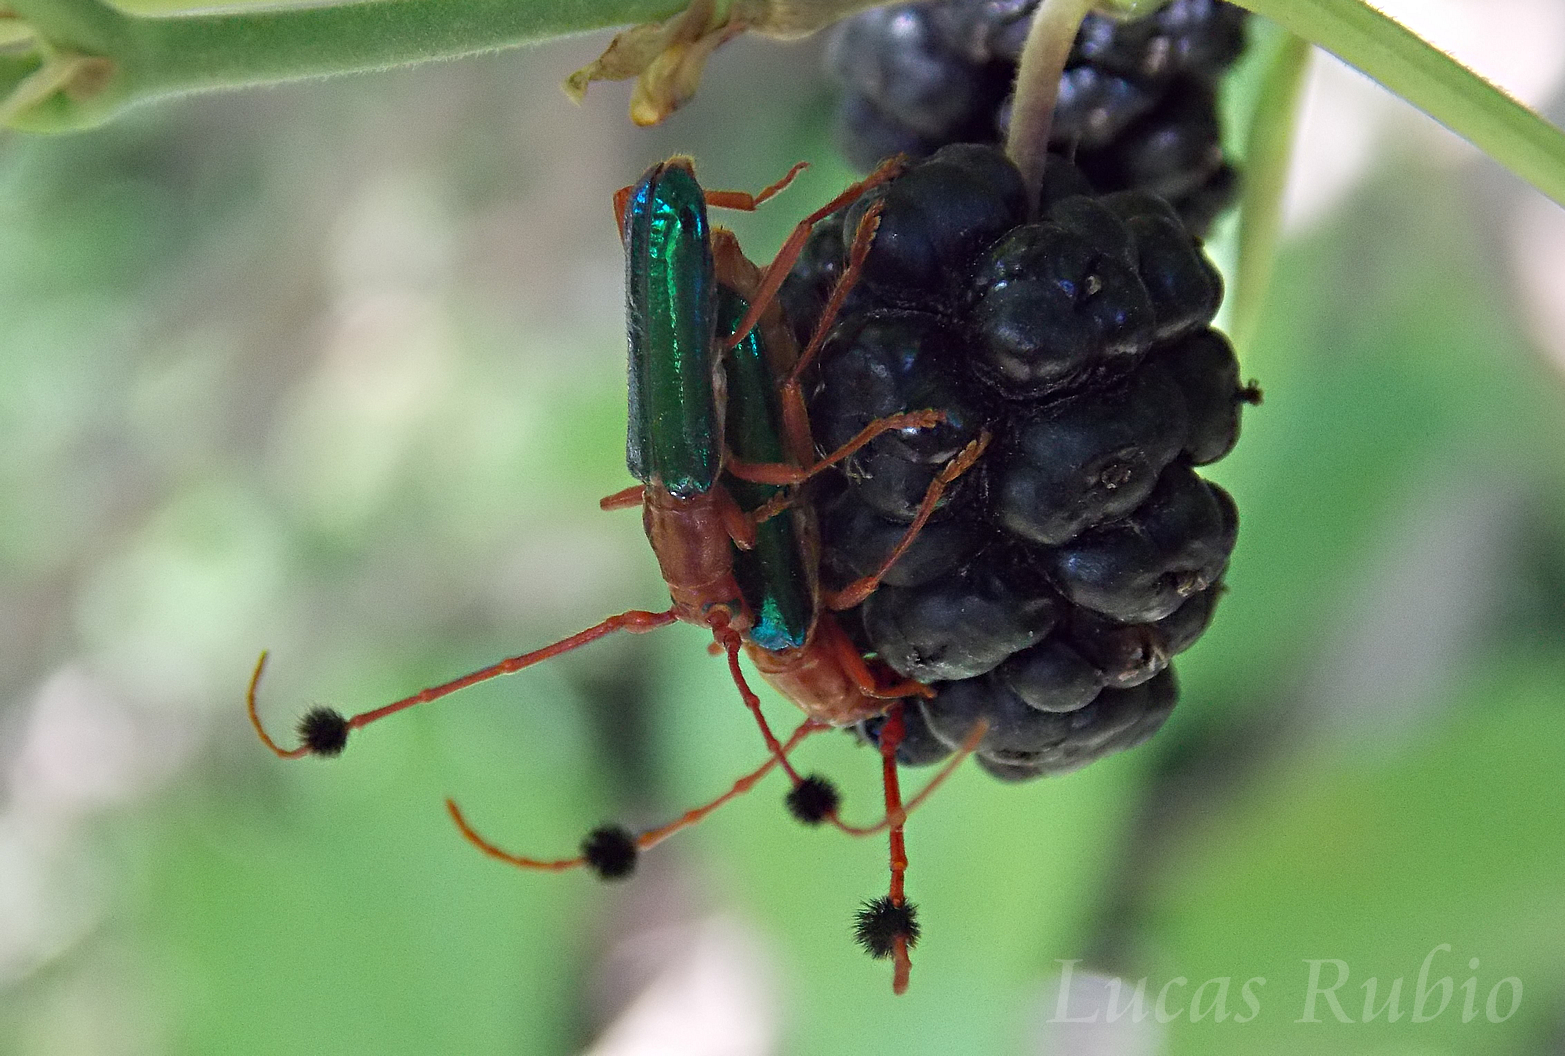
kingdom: Animalia
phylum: Arthropoda
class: Insecta
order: Coleoptera
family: Cerambycidae
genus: Compsocerus
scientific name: Compsocerus violaceus
